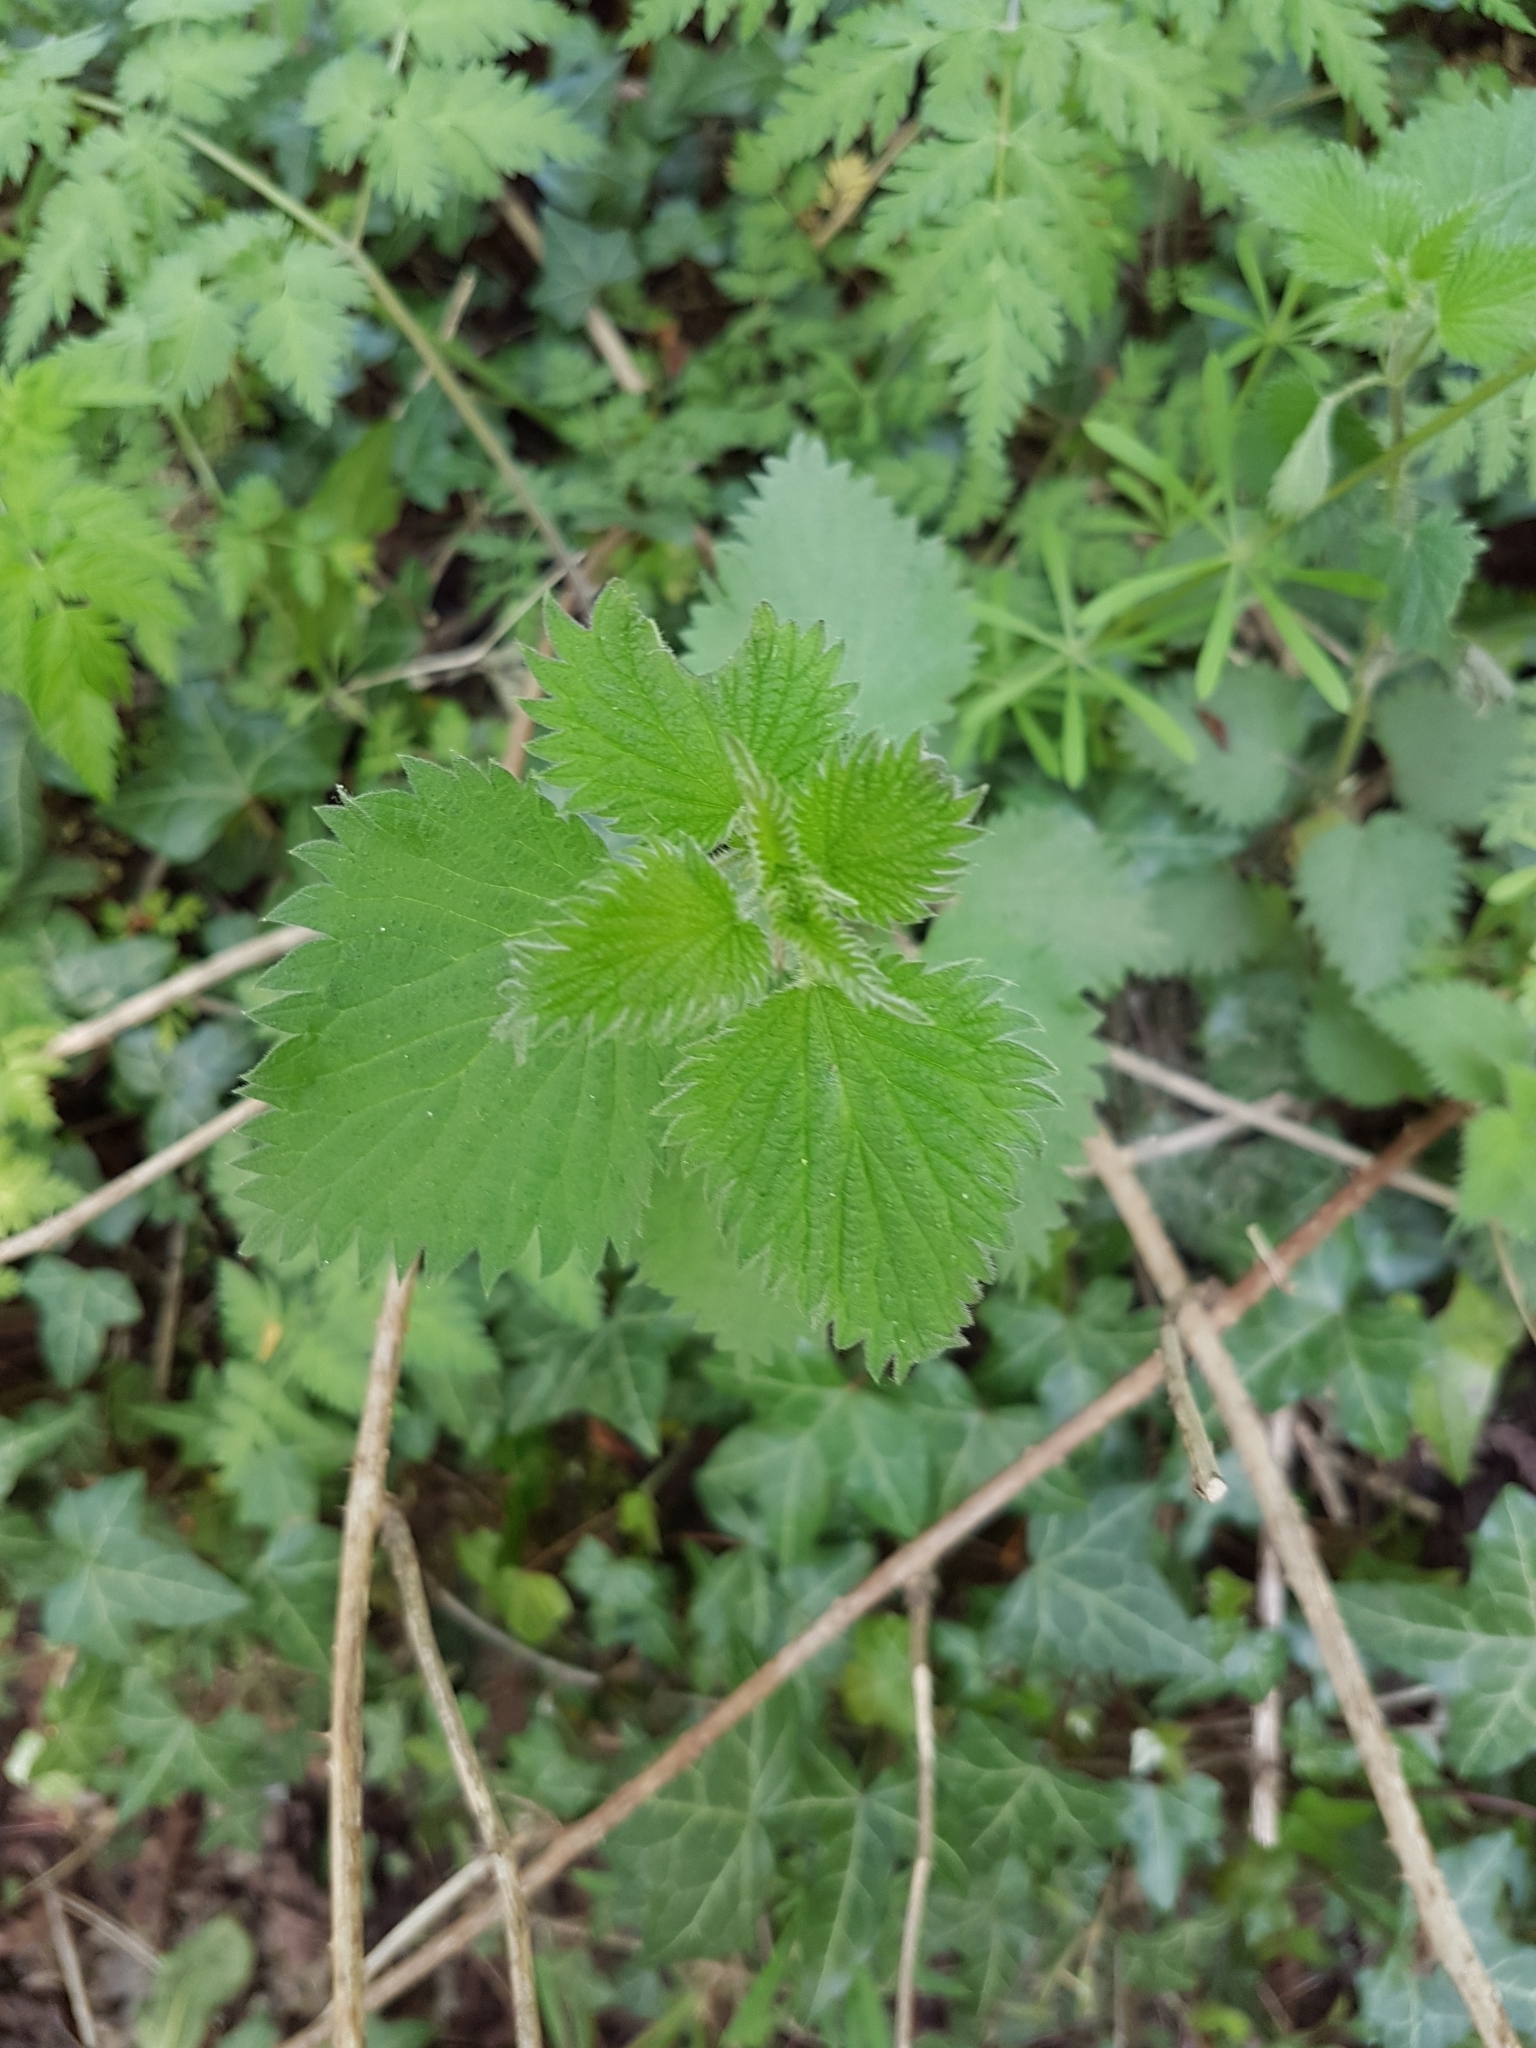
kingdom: Plantae
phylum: Tracheophyta
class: Magnoliopsida
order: Rosales
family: Urticaceae
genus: Urtica
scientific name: Urtica dioica
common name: Common nettle
